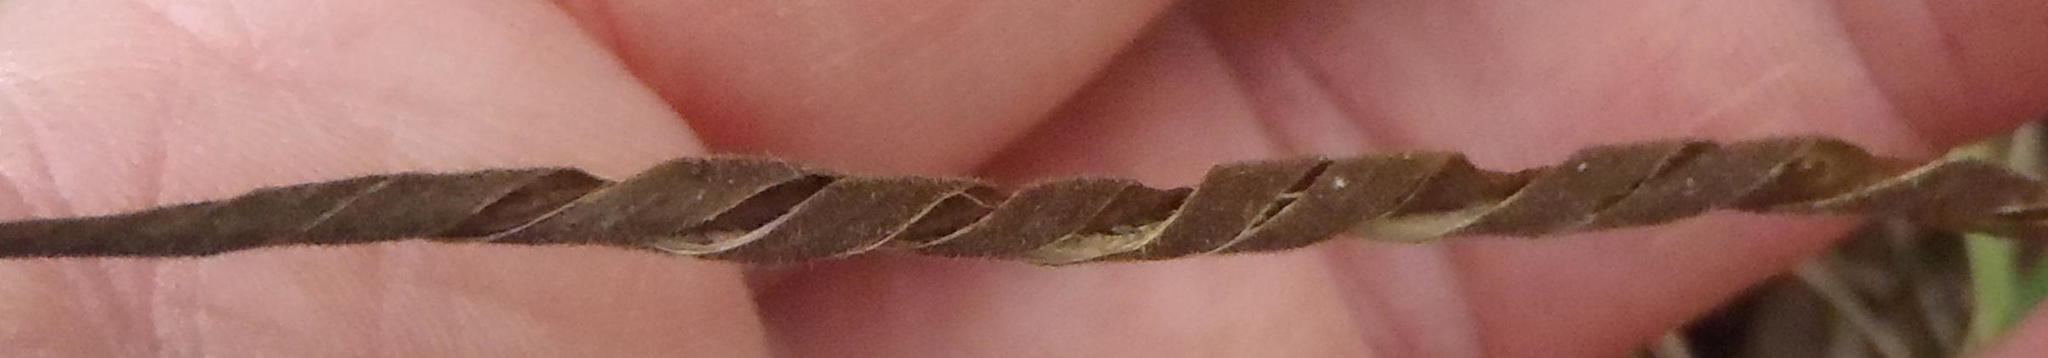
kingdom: Plantae
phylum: Tracheophyta
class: Magnoliopsida
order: Lamiales
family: Gesneriaceae
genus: Streptocarpus
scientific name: Streptocarpus rexii
